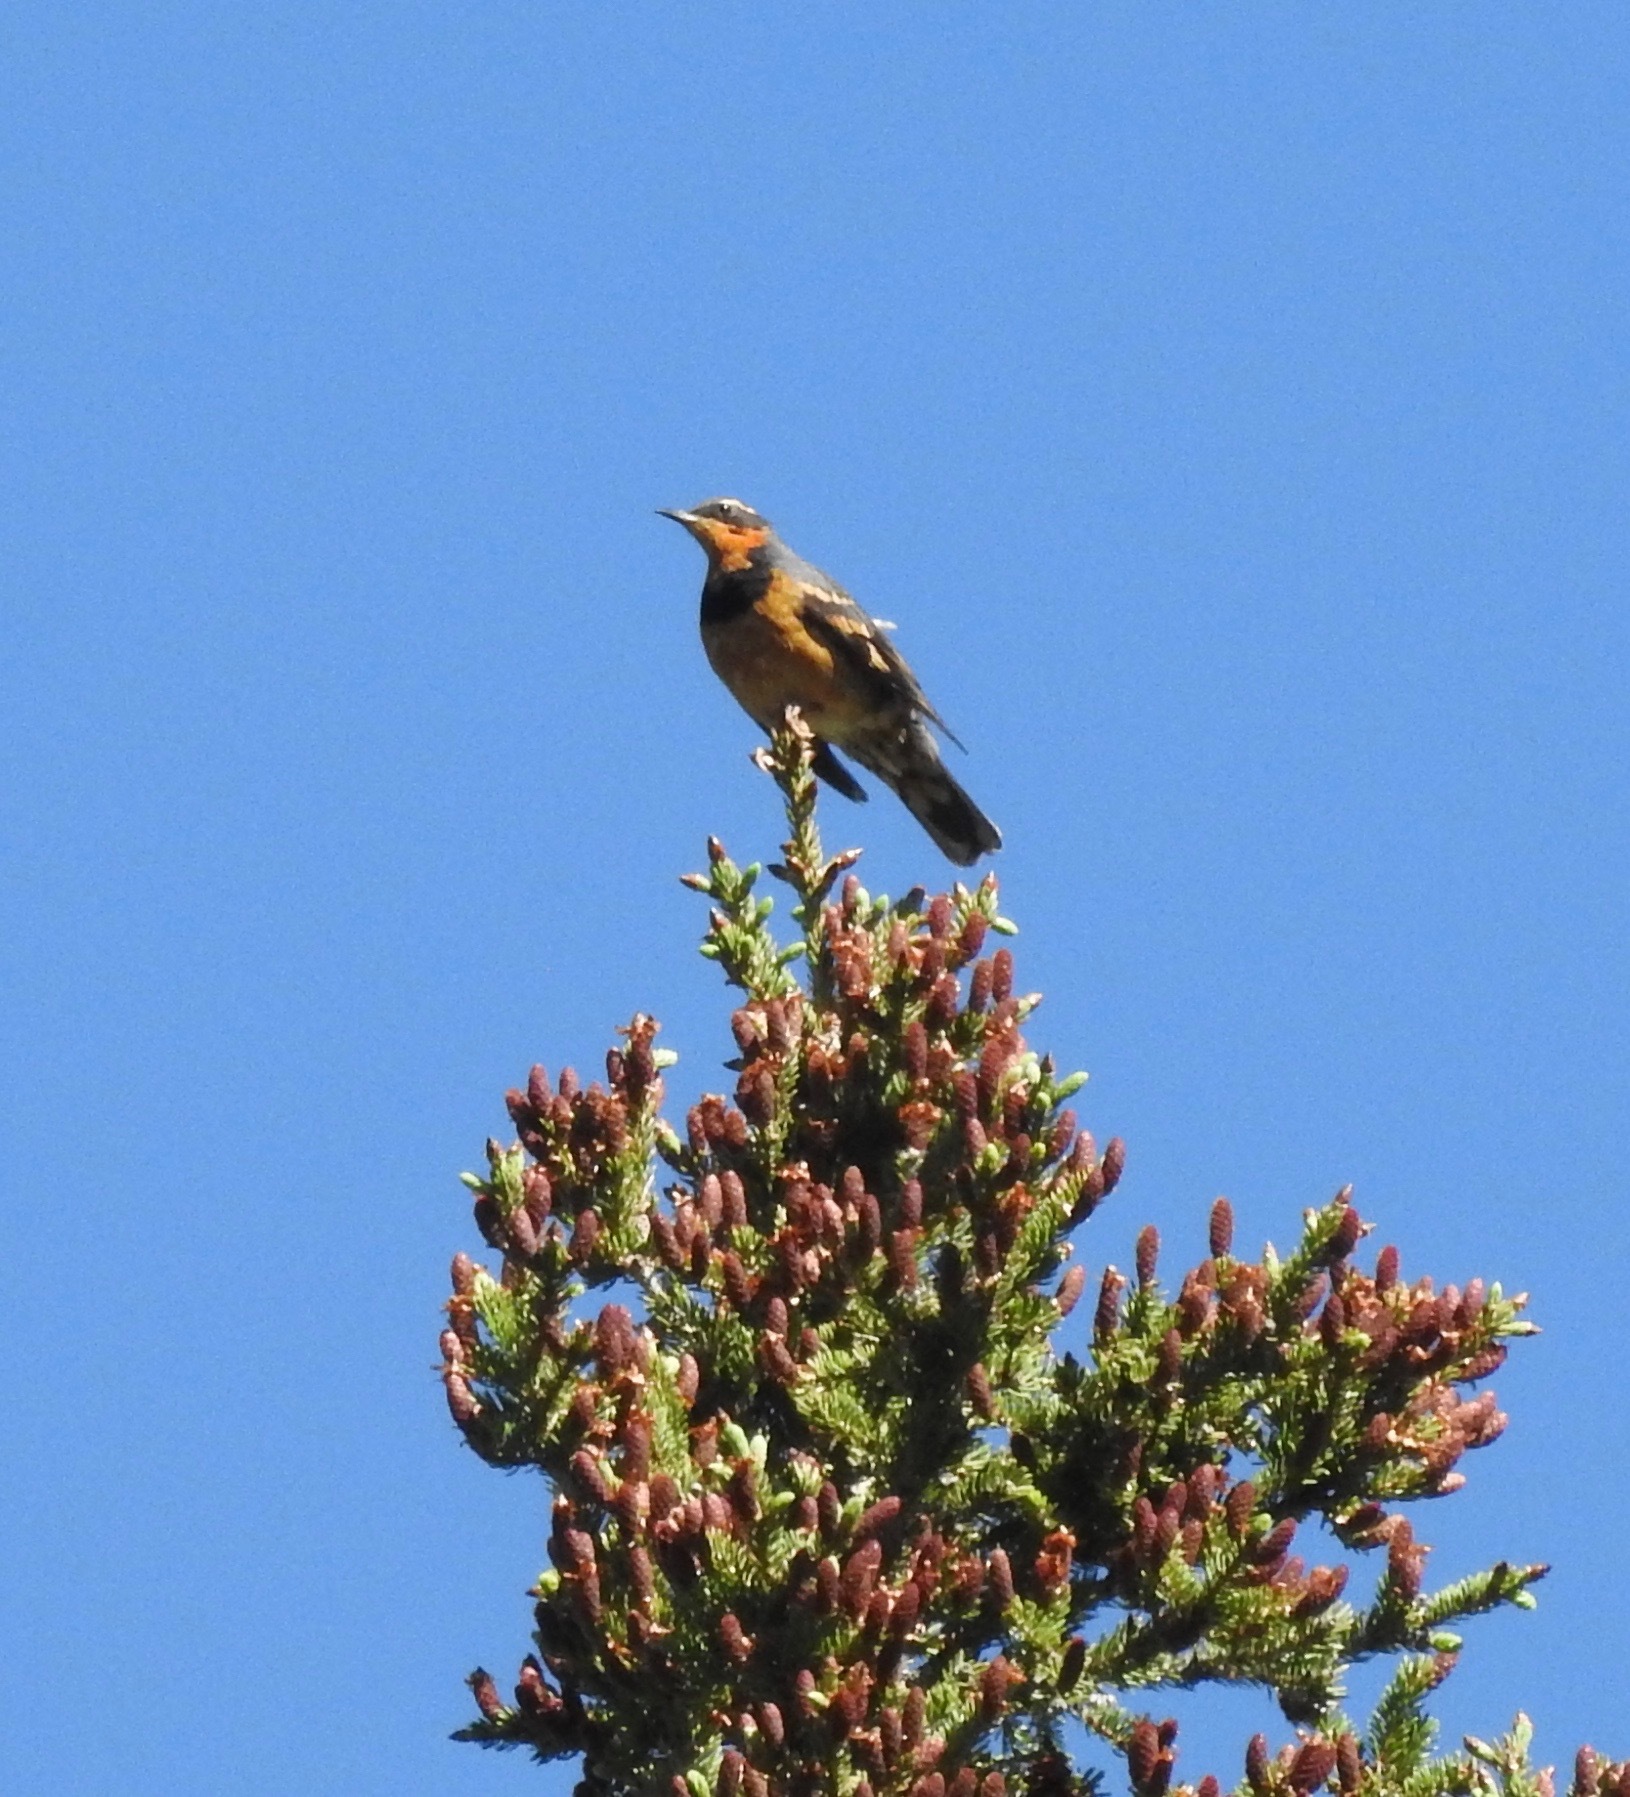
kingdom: Animalia
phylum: Chordata
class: Aves
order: Passeriformes
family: Turdidae
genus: Ixoreus
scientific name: Ixoreus naevius
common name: Varied thrush
